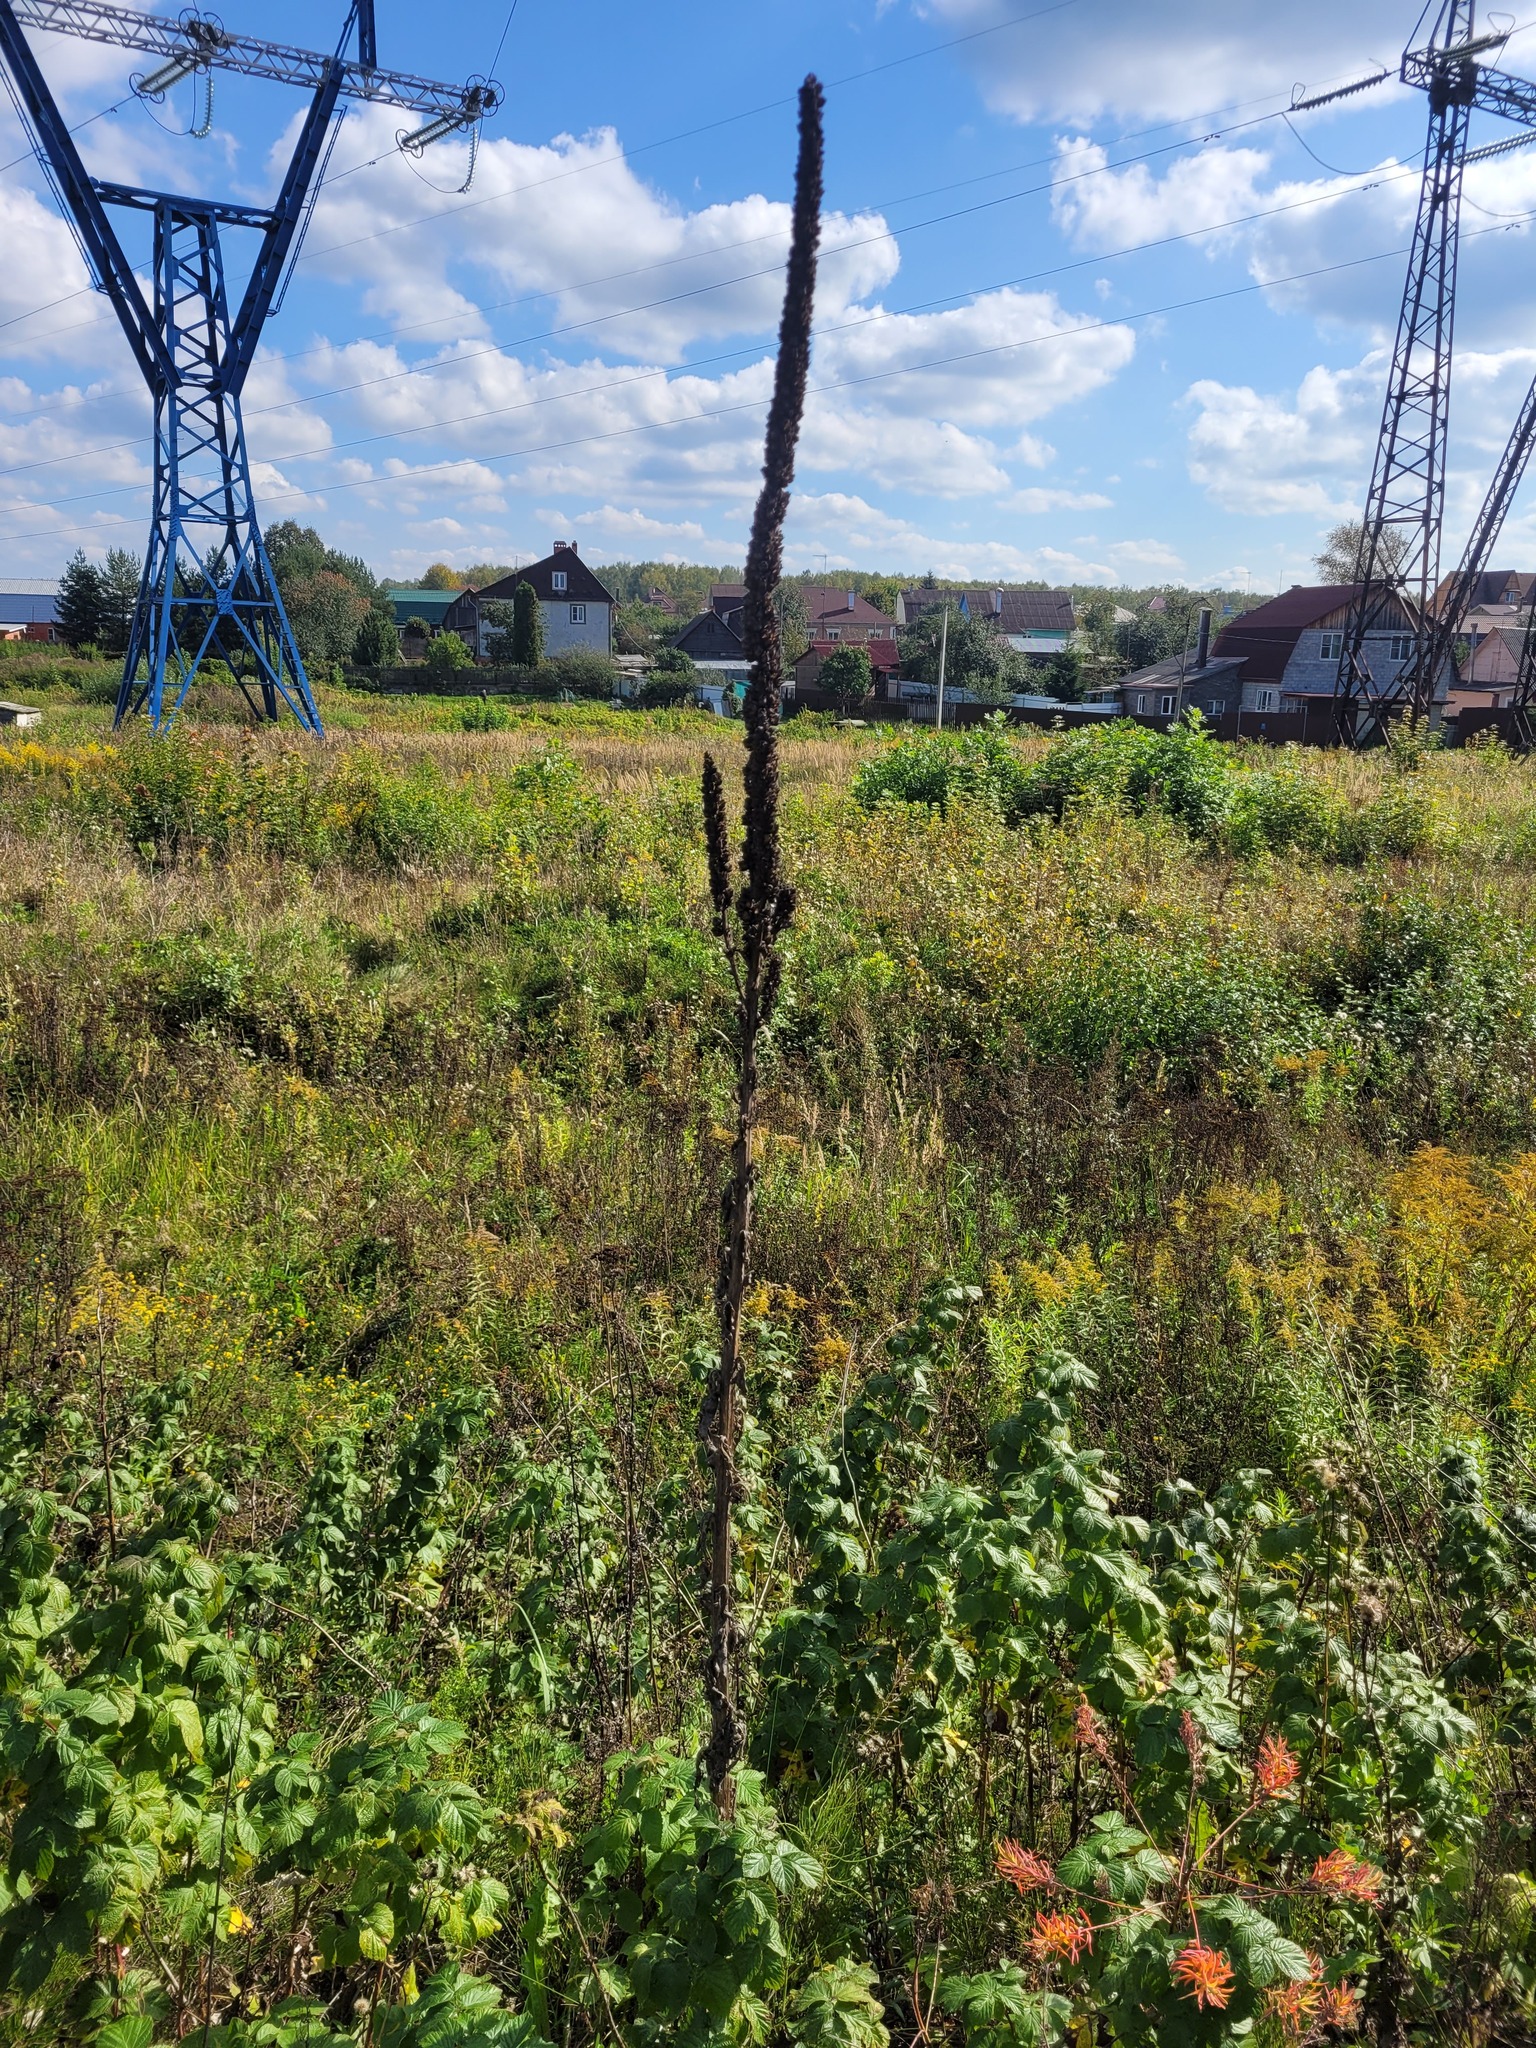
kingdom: Plantae
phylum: Tracheophyta
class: Magnoliopsida
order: Lamiales
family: Scrophulariaceae
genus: Verbascum
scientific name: Verbascum thapsus
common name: Common mullein
